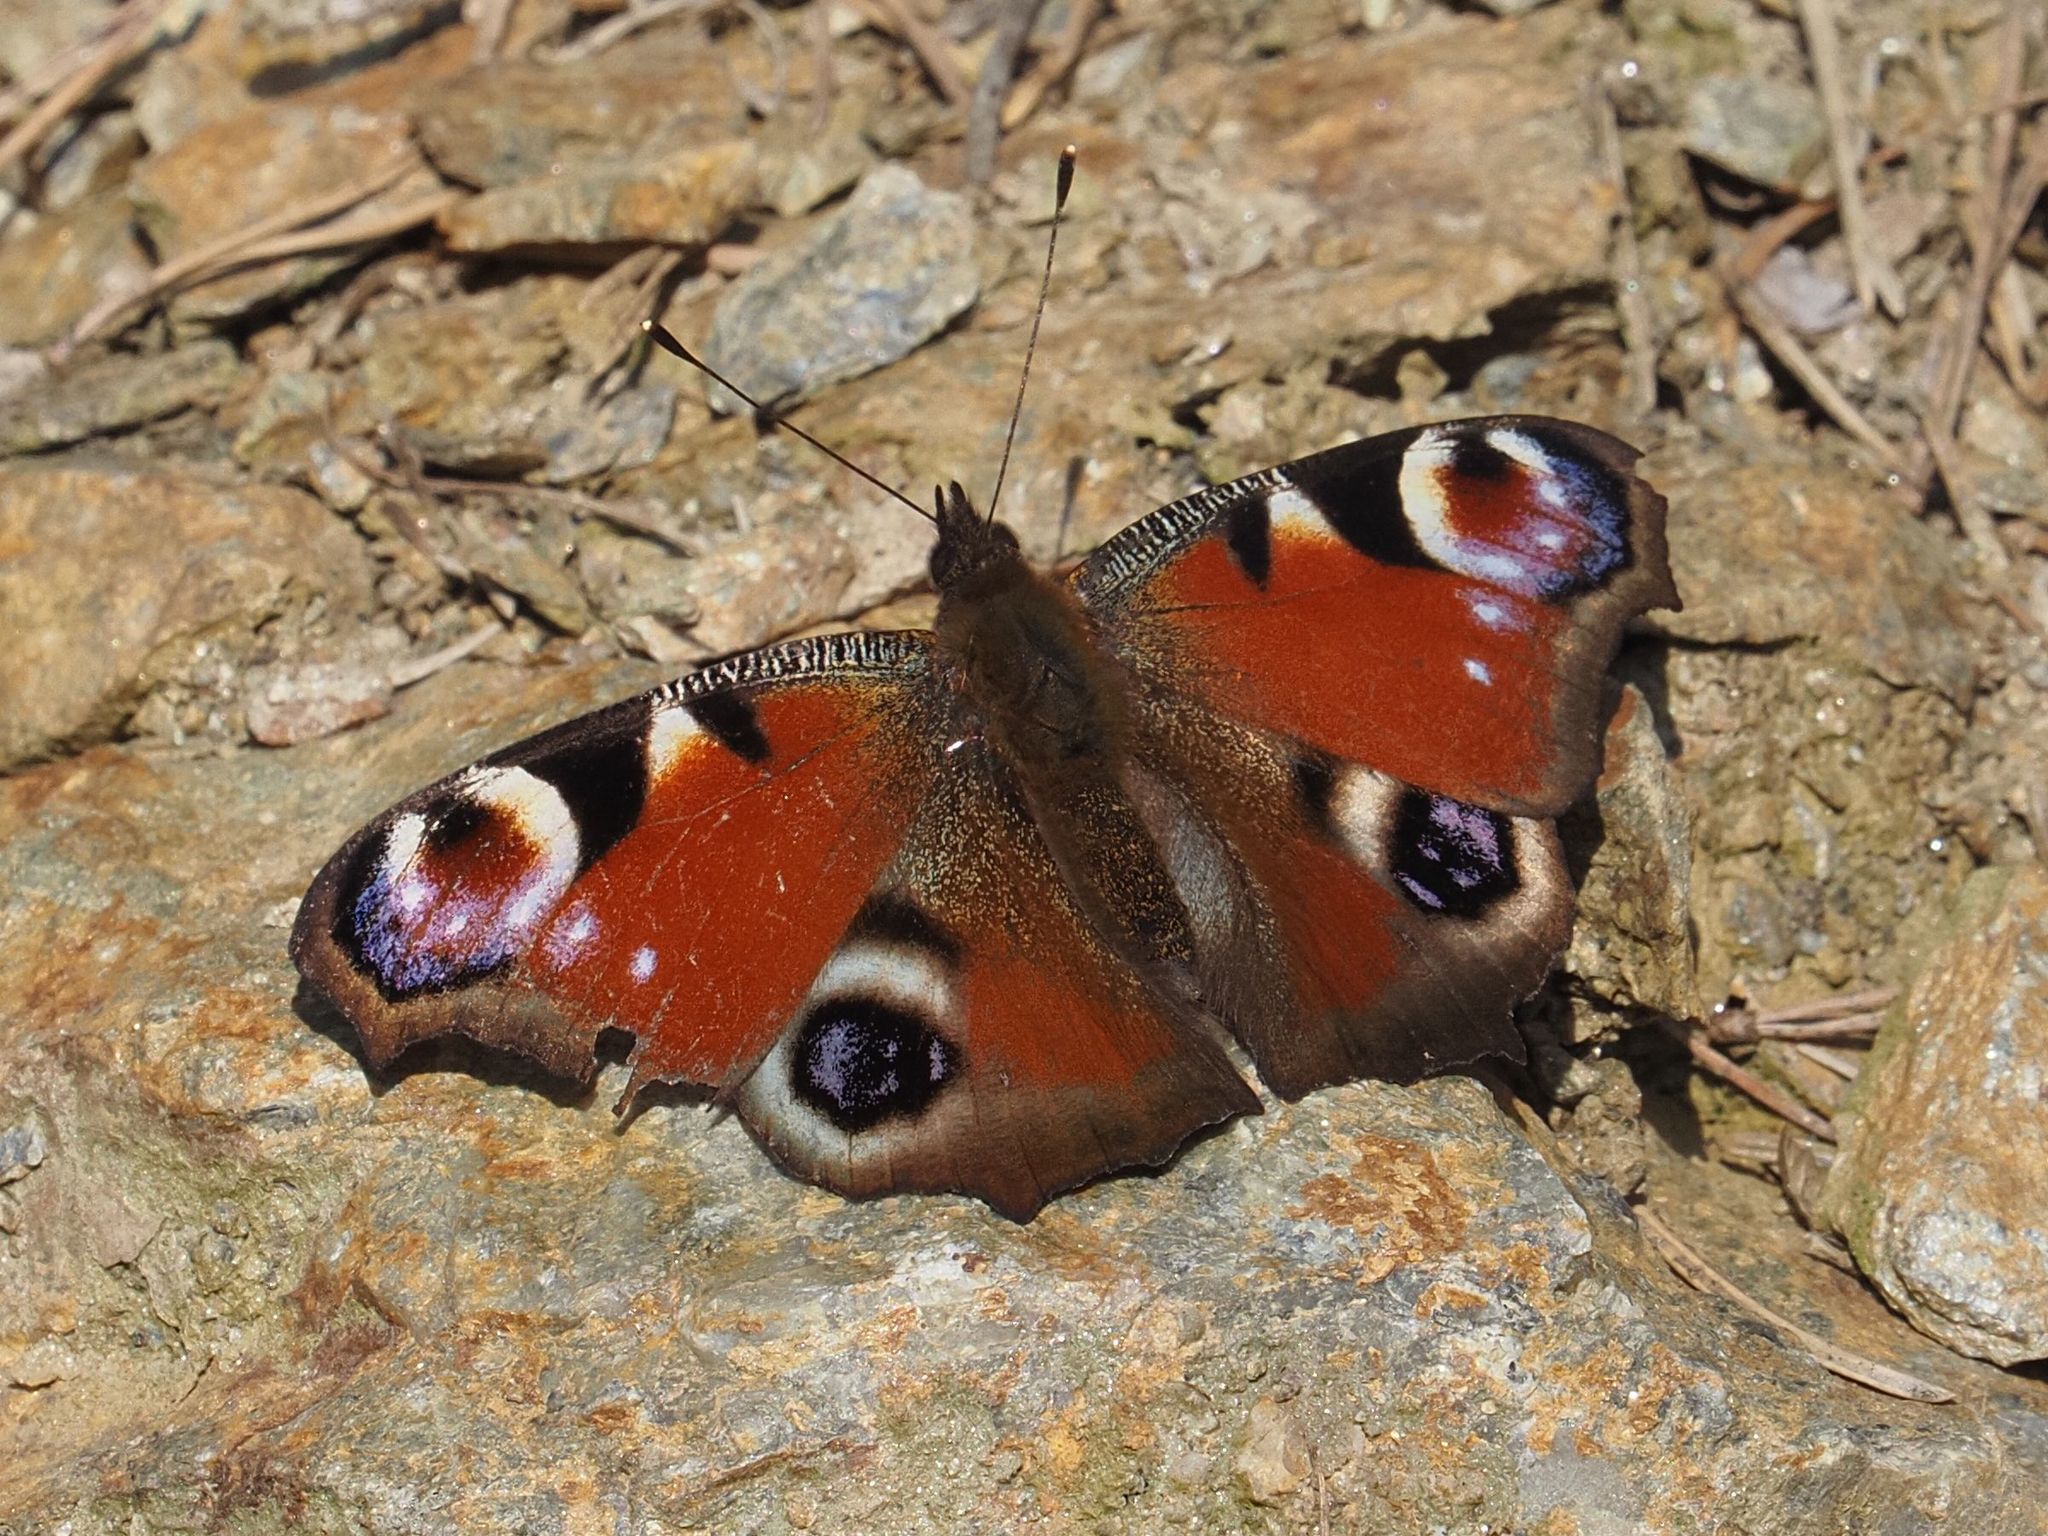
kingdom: Animalia
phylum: Arthropoda
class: Insecta
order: Lepidoptera
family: Nymphalidae
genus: Aglais
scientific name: Aglais io
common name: Peacock
